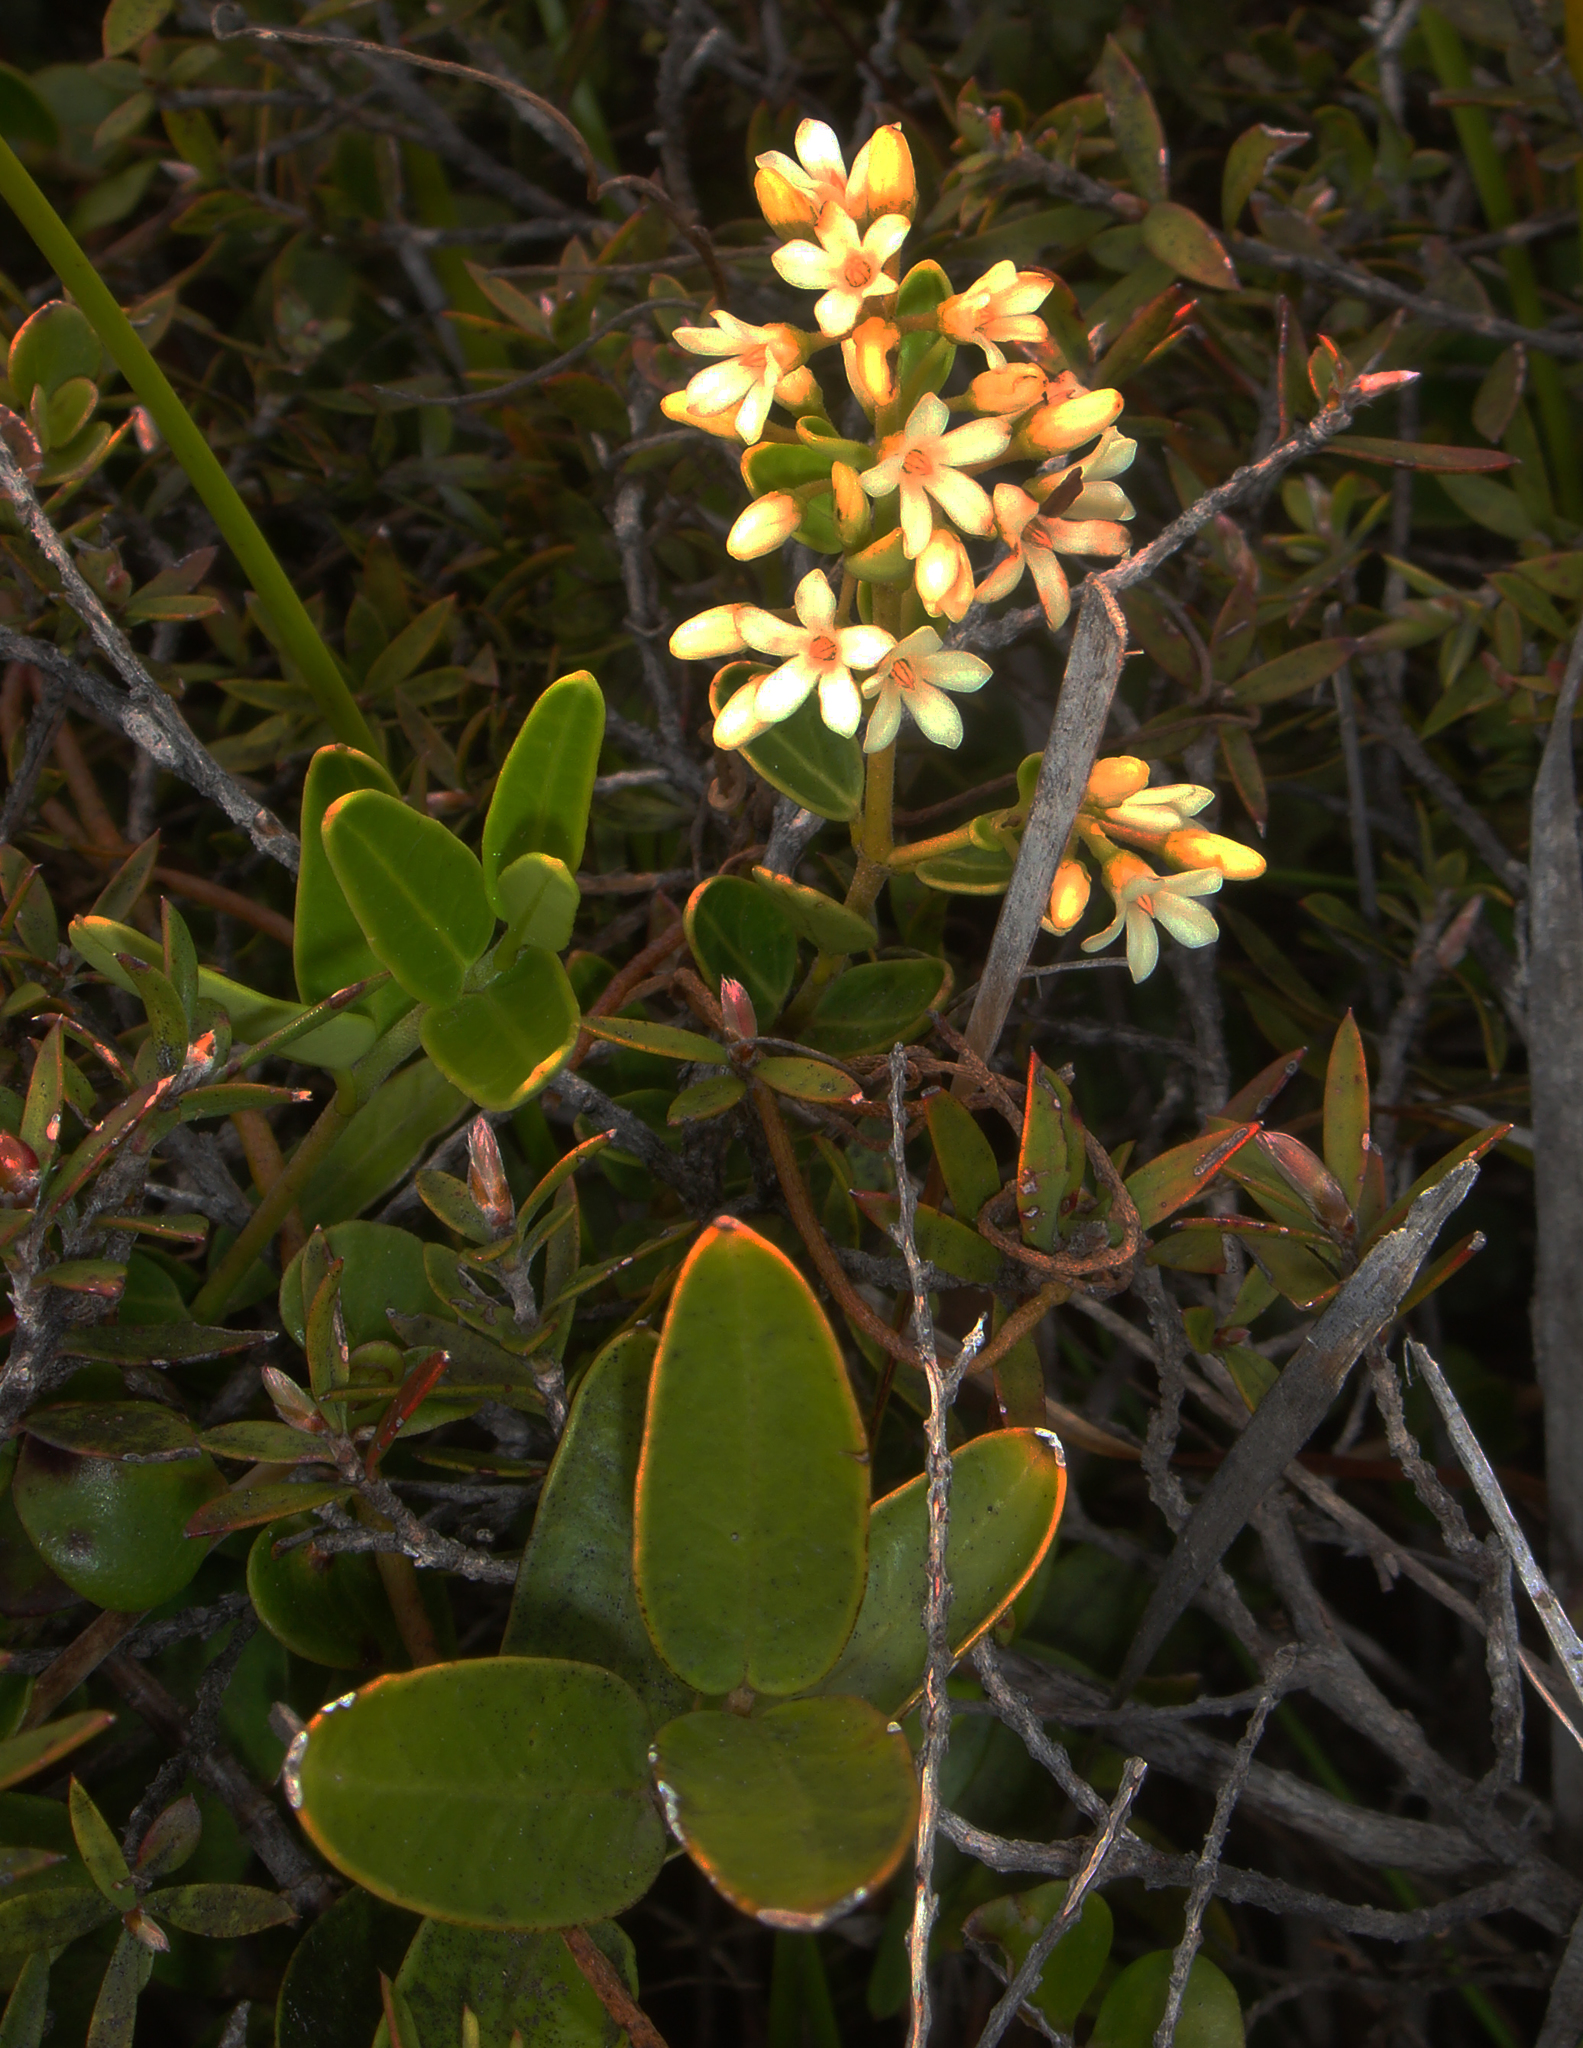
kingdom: Plantae
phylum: Tracheophyta
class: Magnoliopsida
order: Gentianales
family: Apocynaceae
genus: Parsonsia
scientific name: Parsonsia praeruptis
